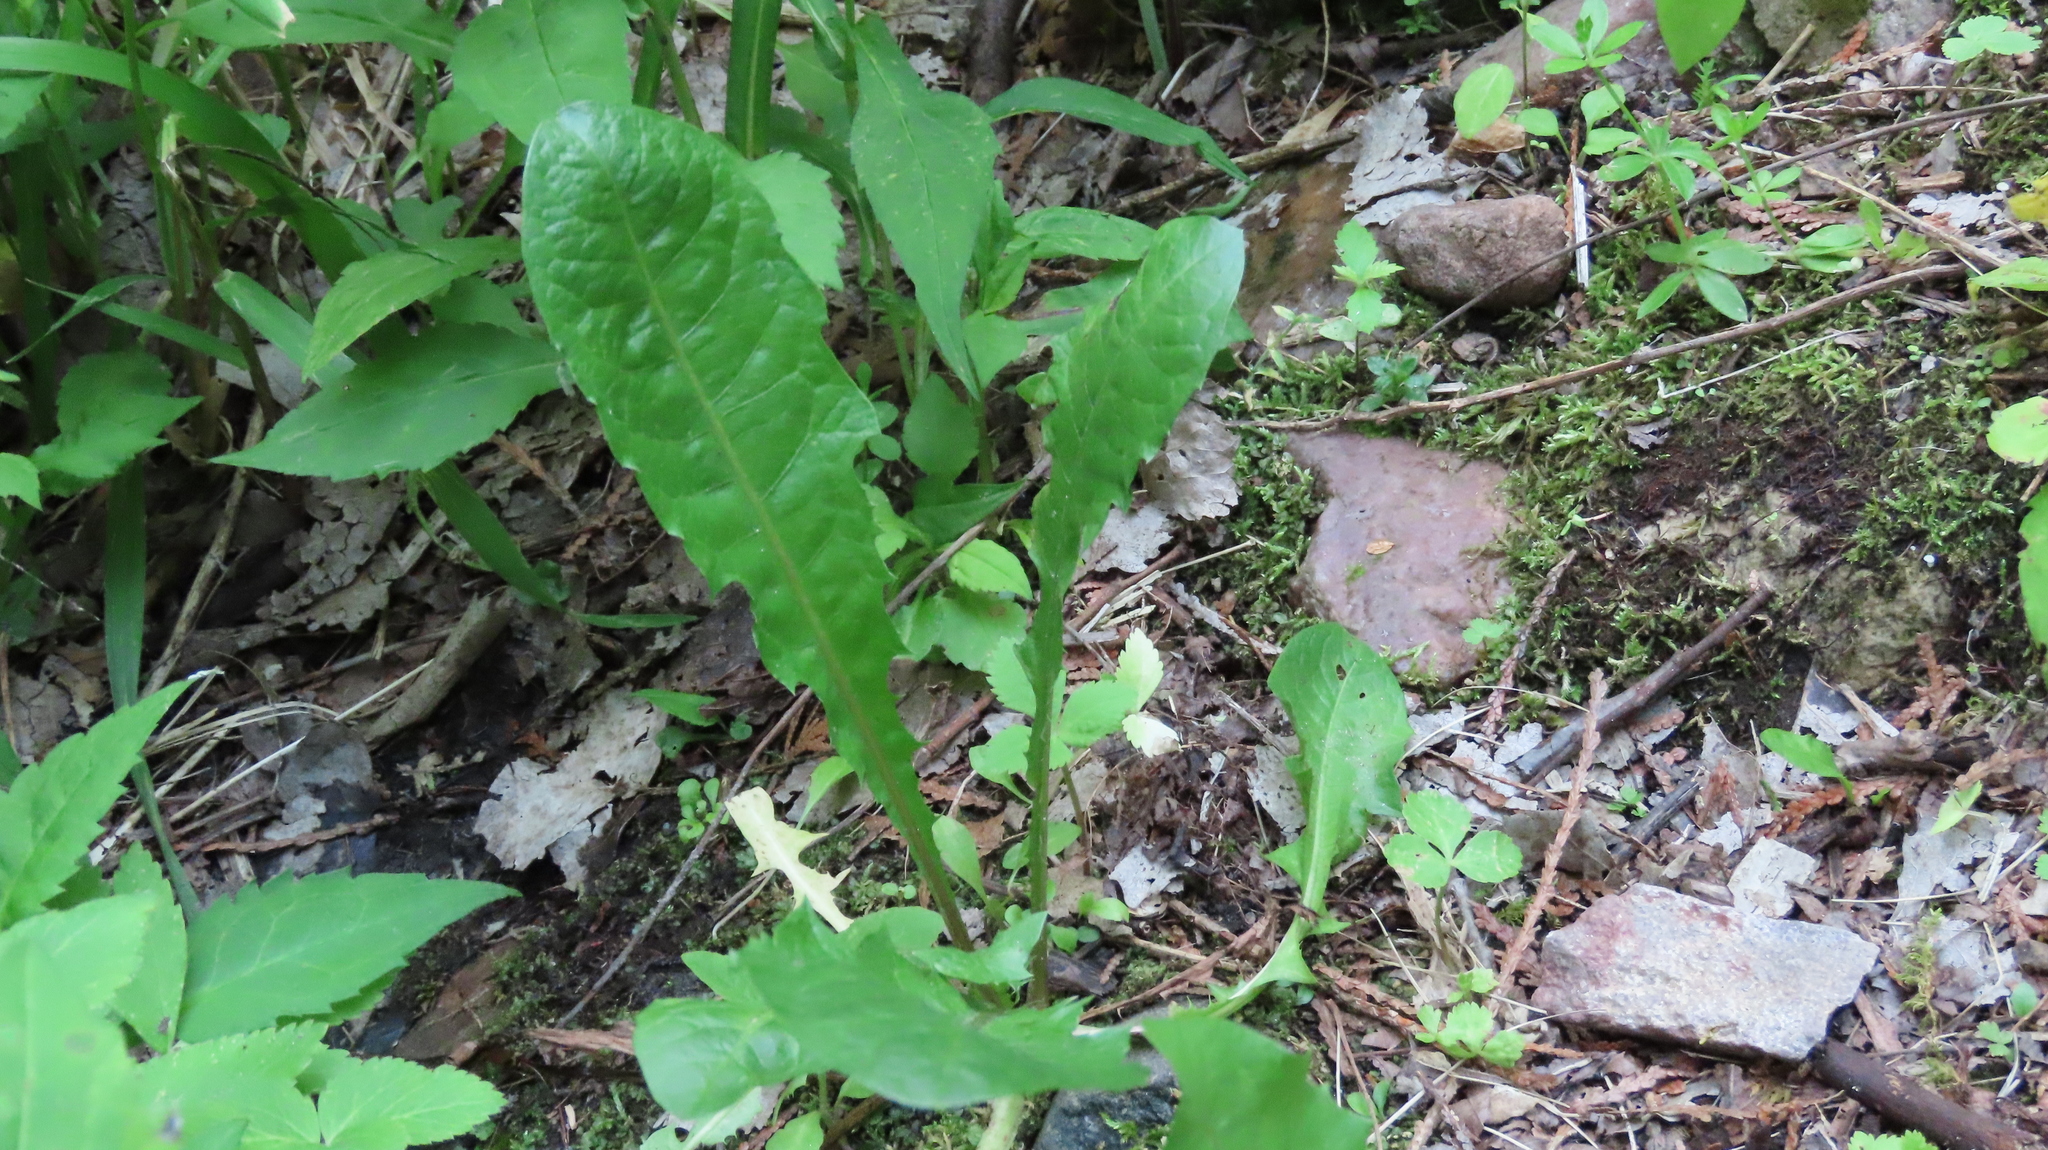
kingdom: Plantae
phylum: Tracheophyta
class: Magnoliopsida
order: Asterales
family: Asteraceae
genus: Taraxacum
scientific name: Taraxacum officinale
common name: Common dandelion
